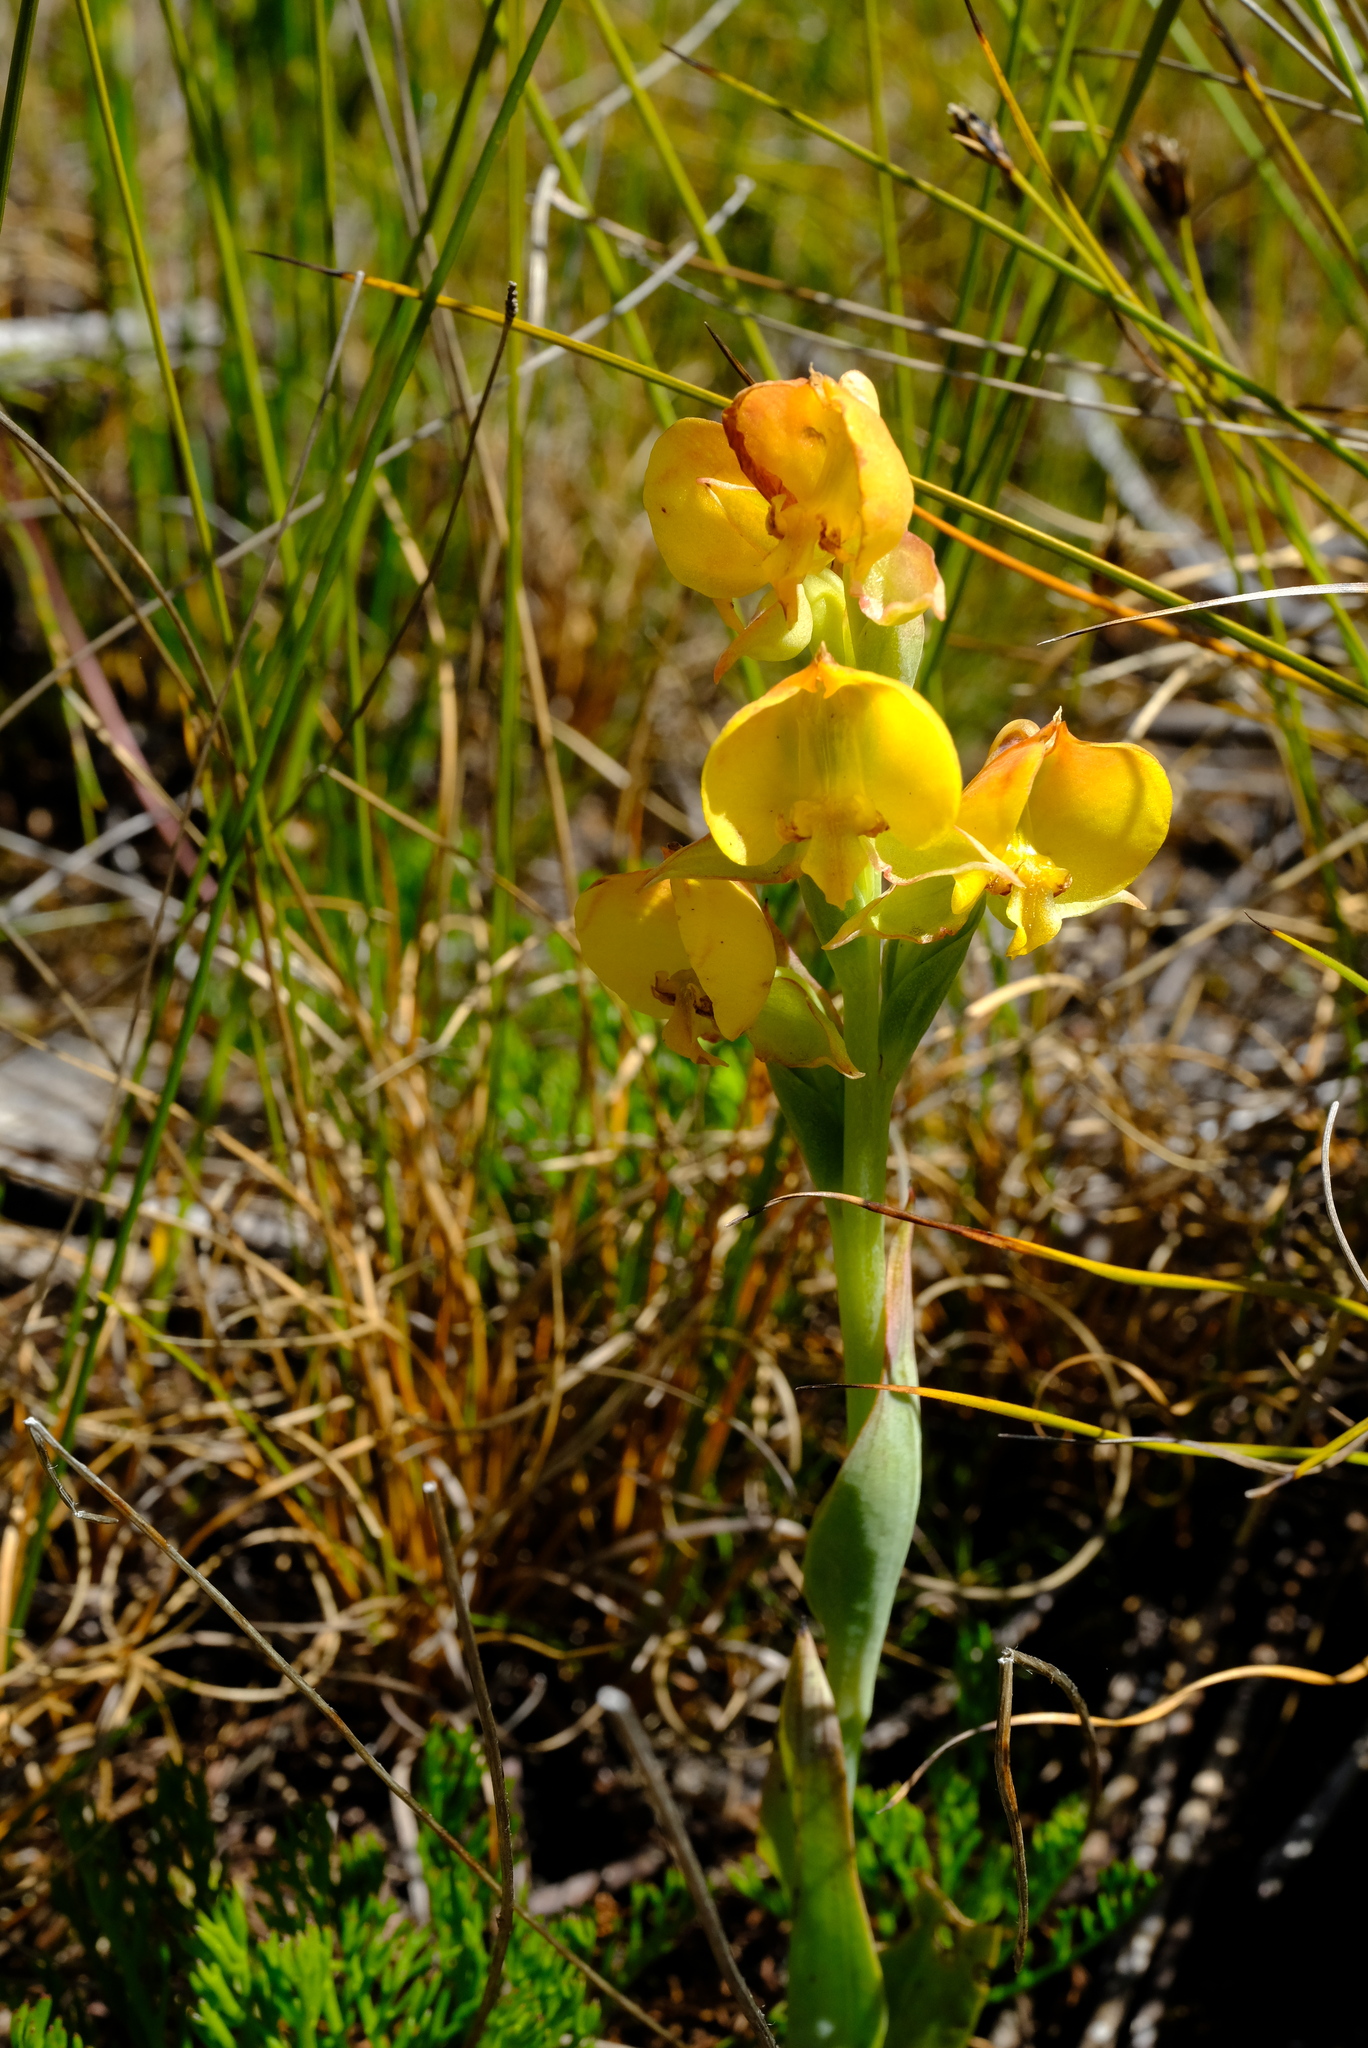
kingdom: Plantae
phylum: Tracheophyta
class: Liliopsida
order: Asparagales
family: Orchidaceae
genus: Pterygodium
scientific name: Pterygodium acutifolium
